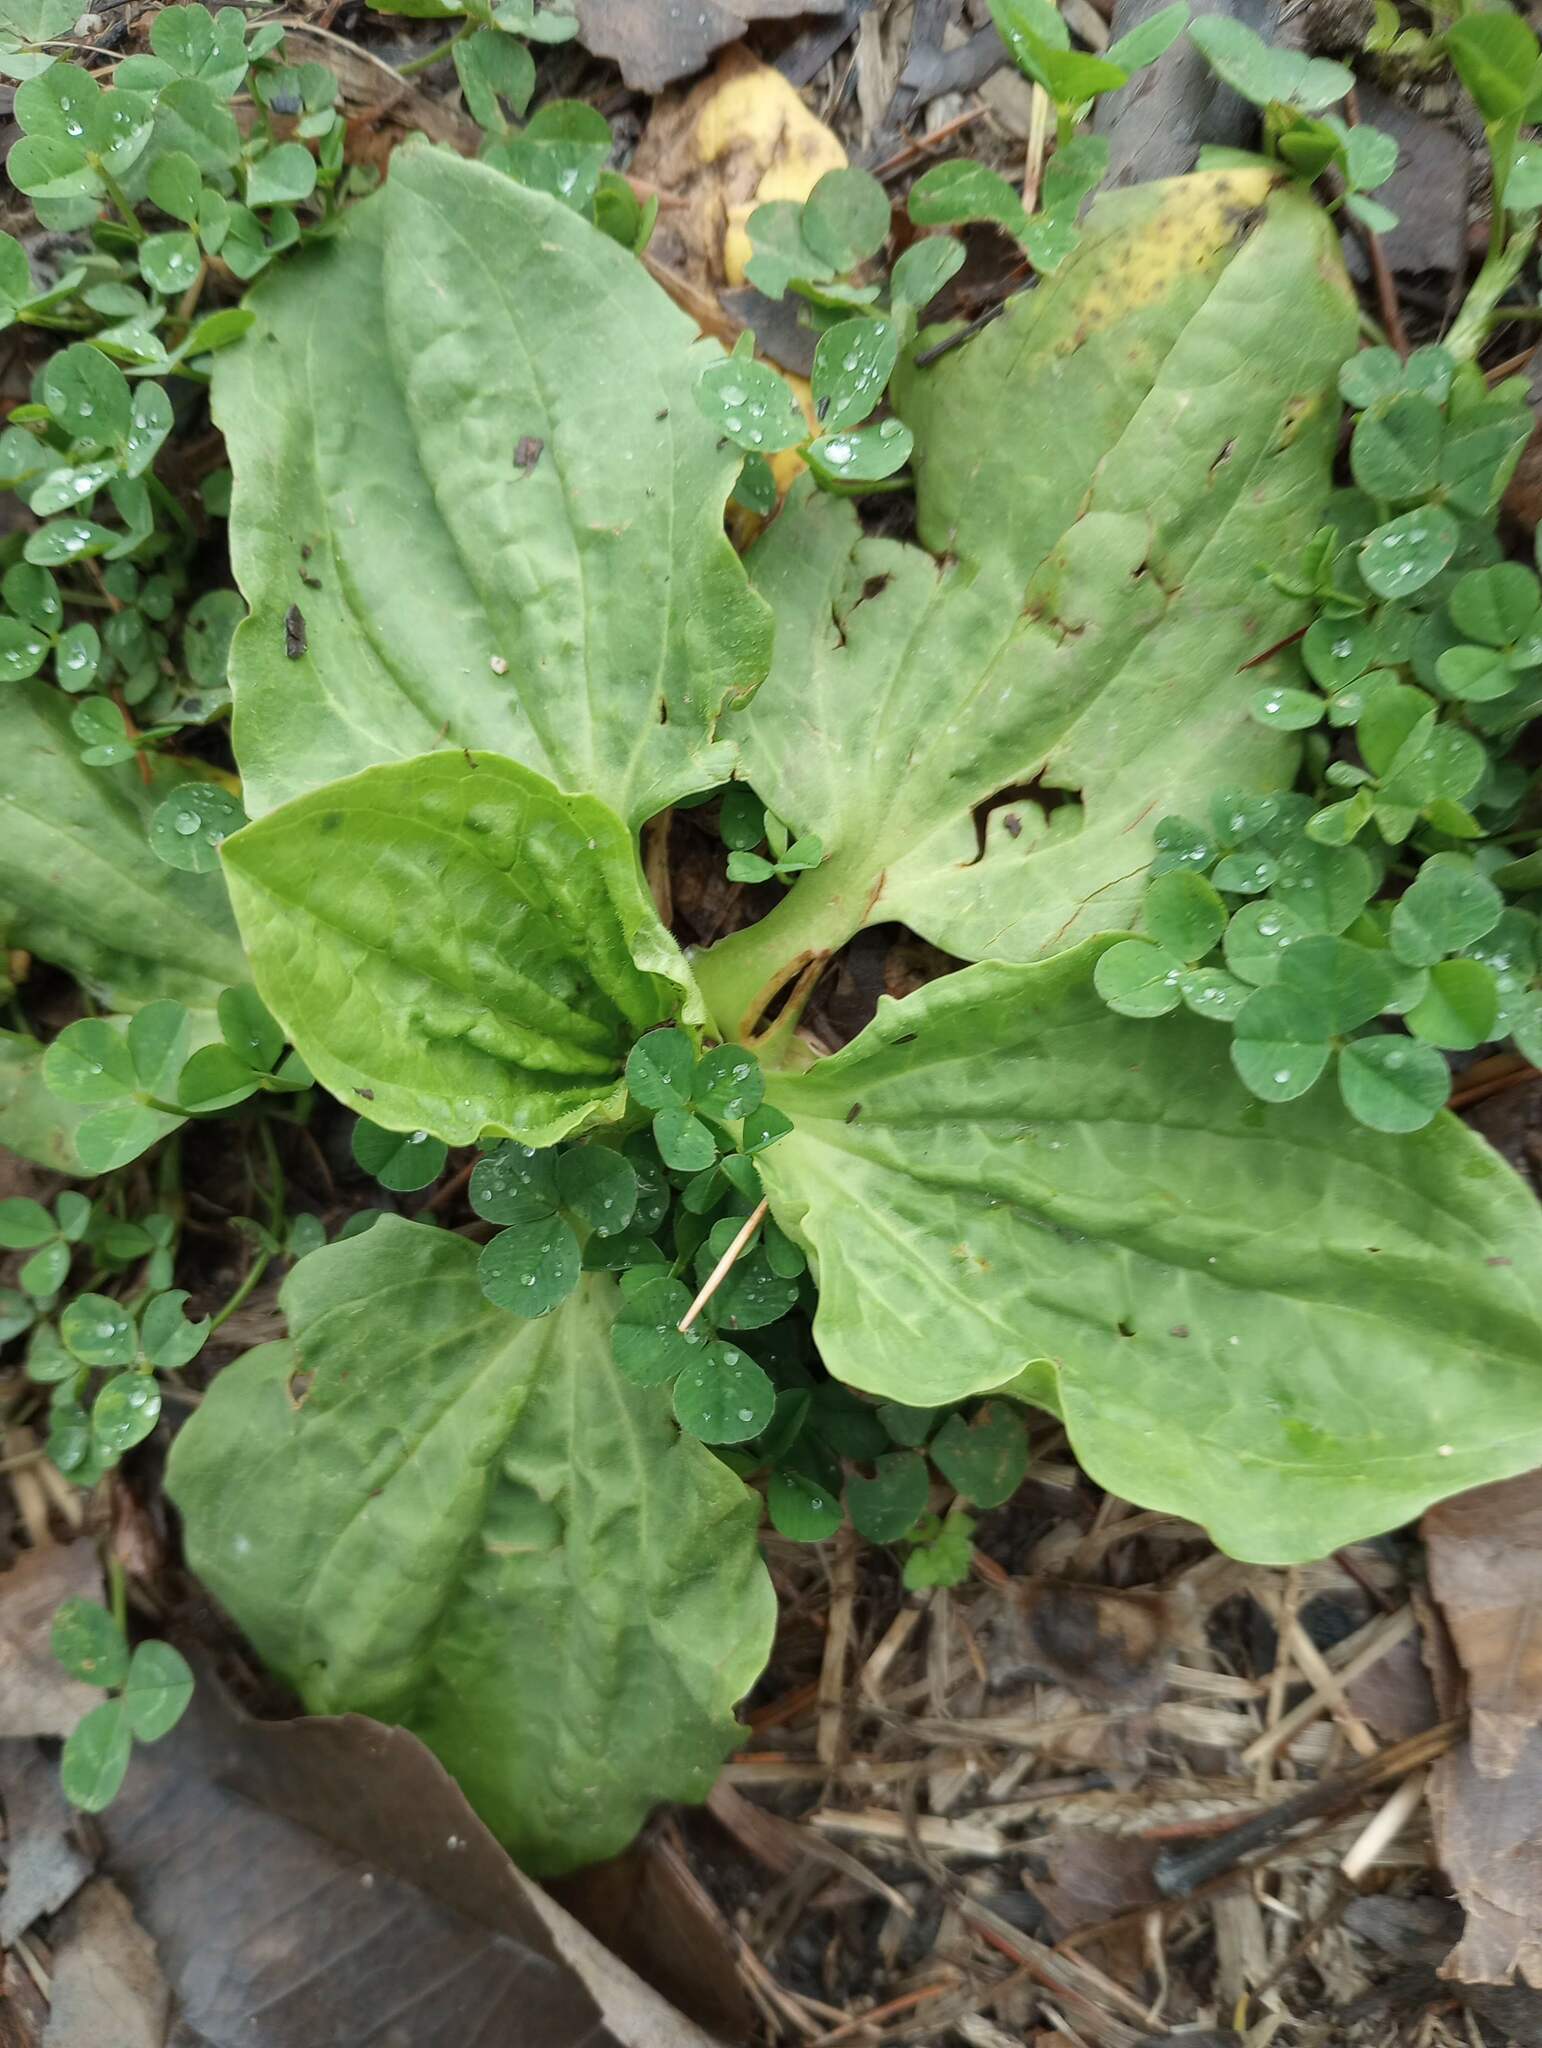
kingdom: Plantae
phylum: Tracheophyta
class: Magnoliopsida
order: Lamiales
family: Plantaginaceae
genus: Plantago
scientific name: Plantago major
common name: Common plantain
